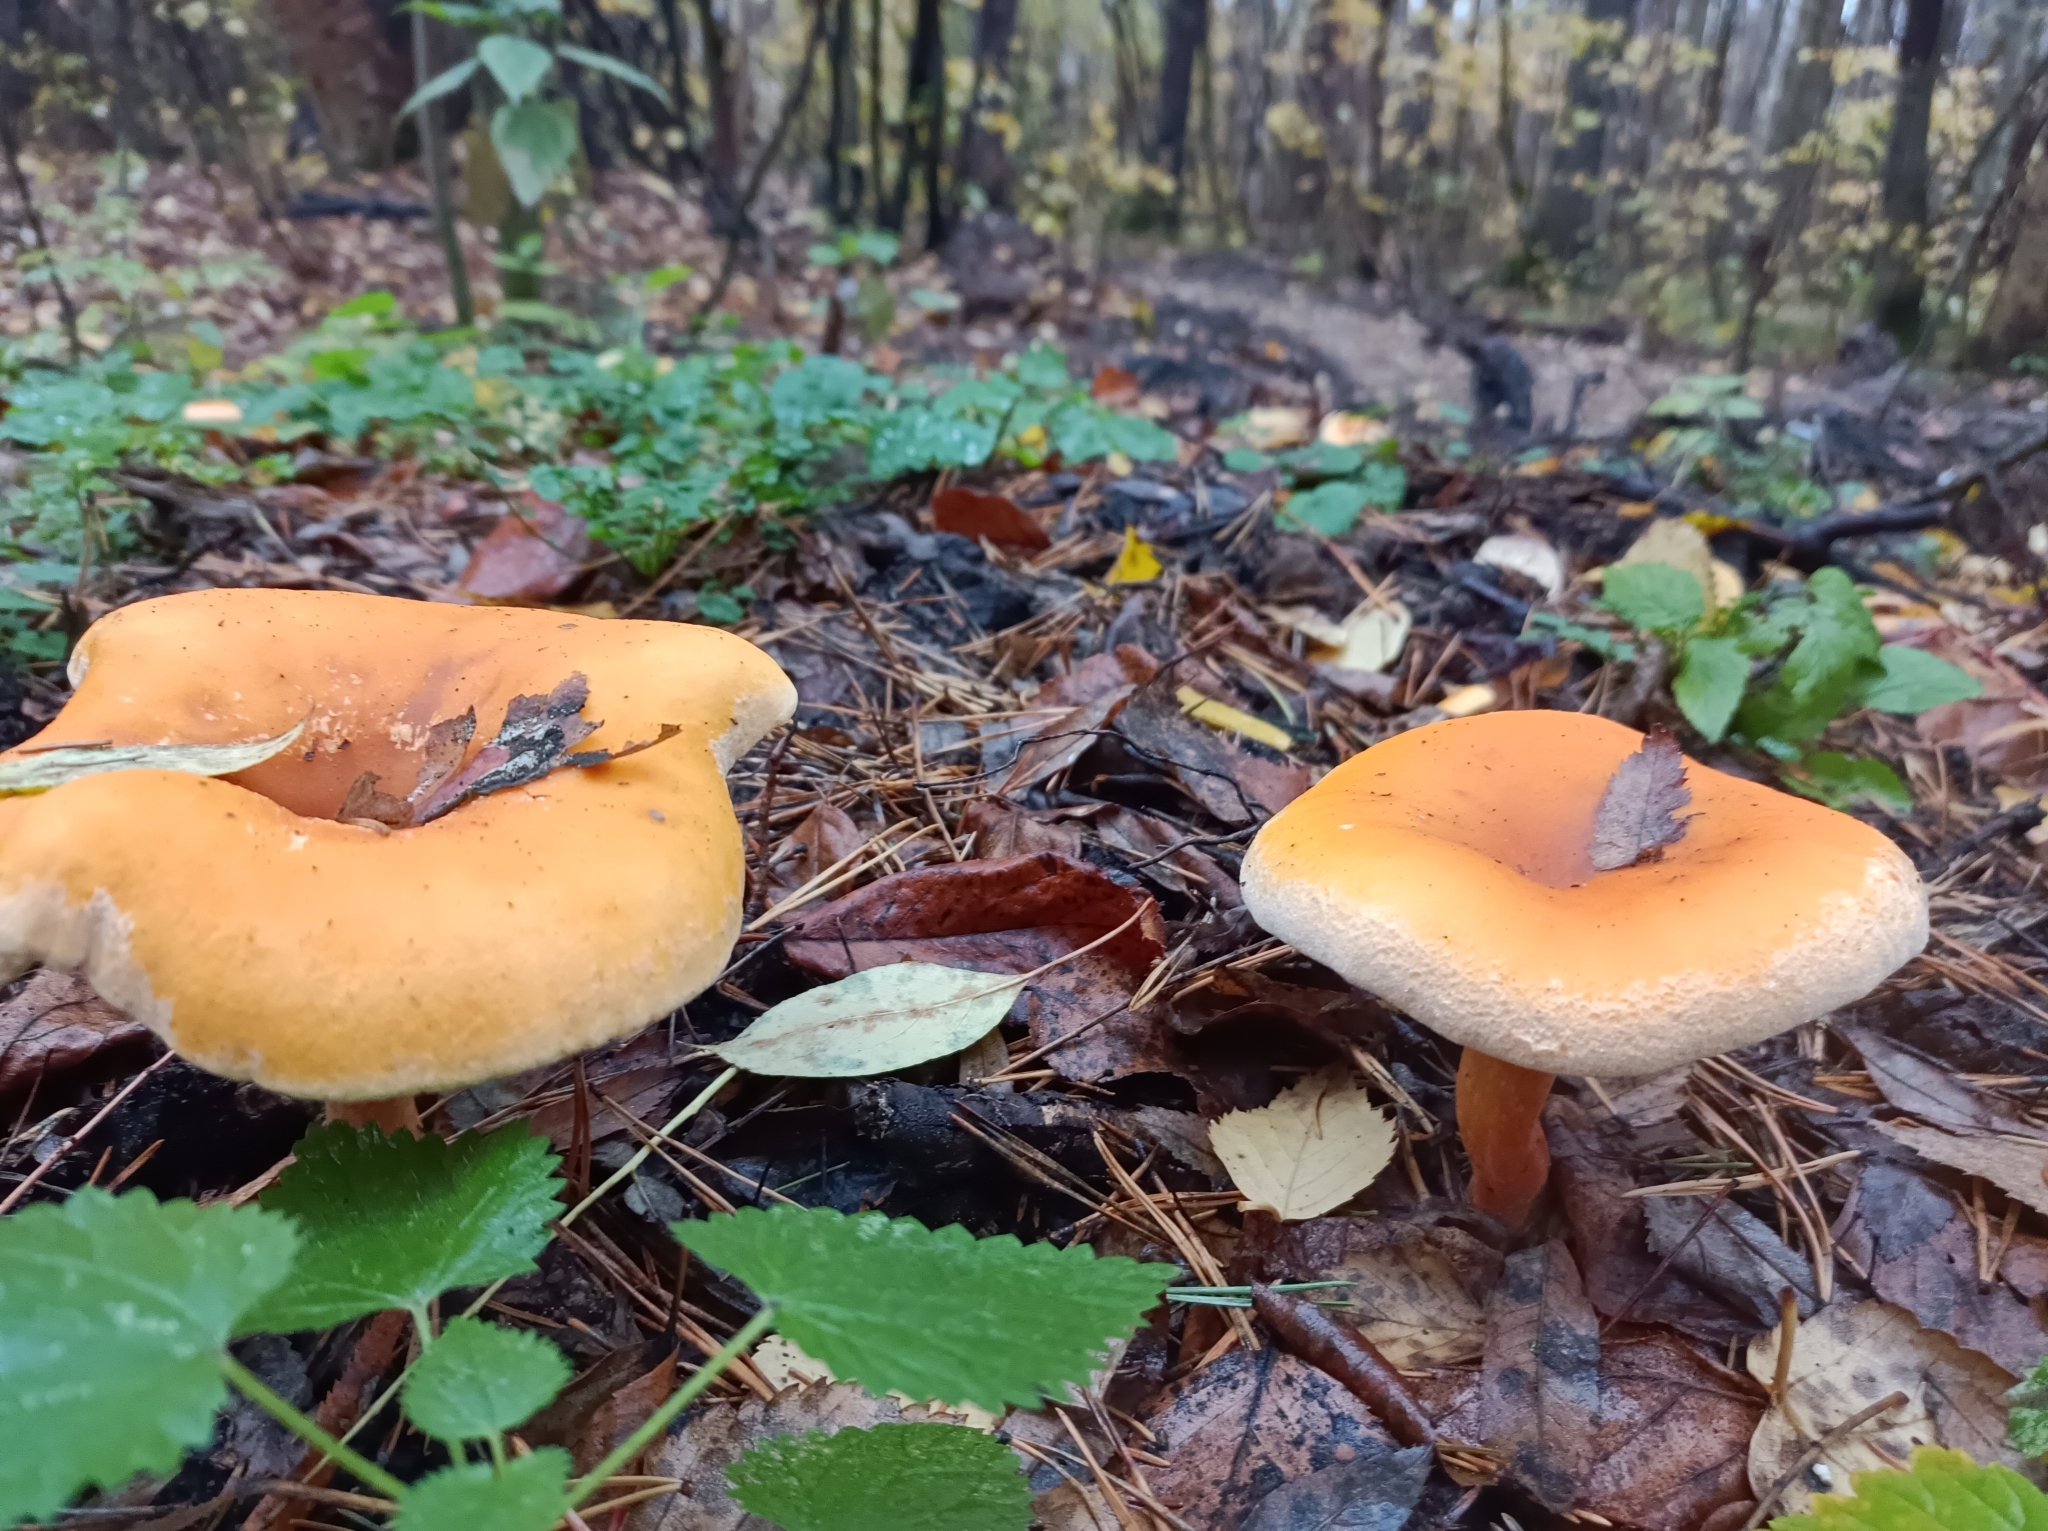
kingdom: Fungi
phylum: Basidiomycota
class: Agaricomycetes
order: Boletales
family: Hygrophoropsidaceae
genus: Hygrophoropsis
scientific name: Hygrophoropsis aurantiaca
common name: False chanterelle
